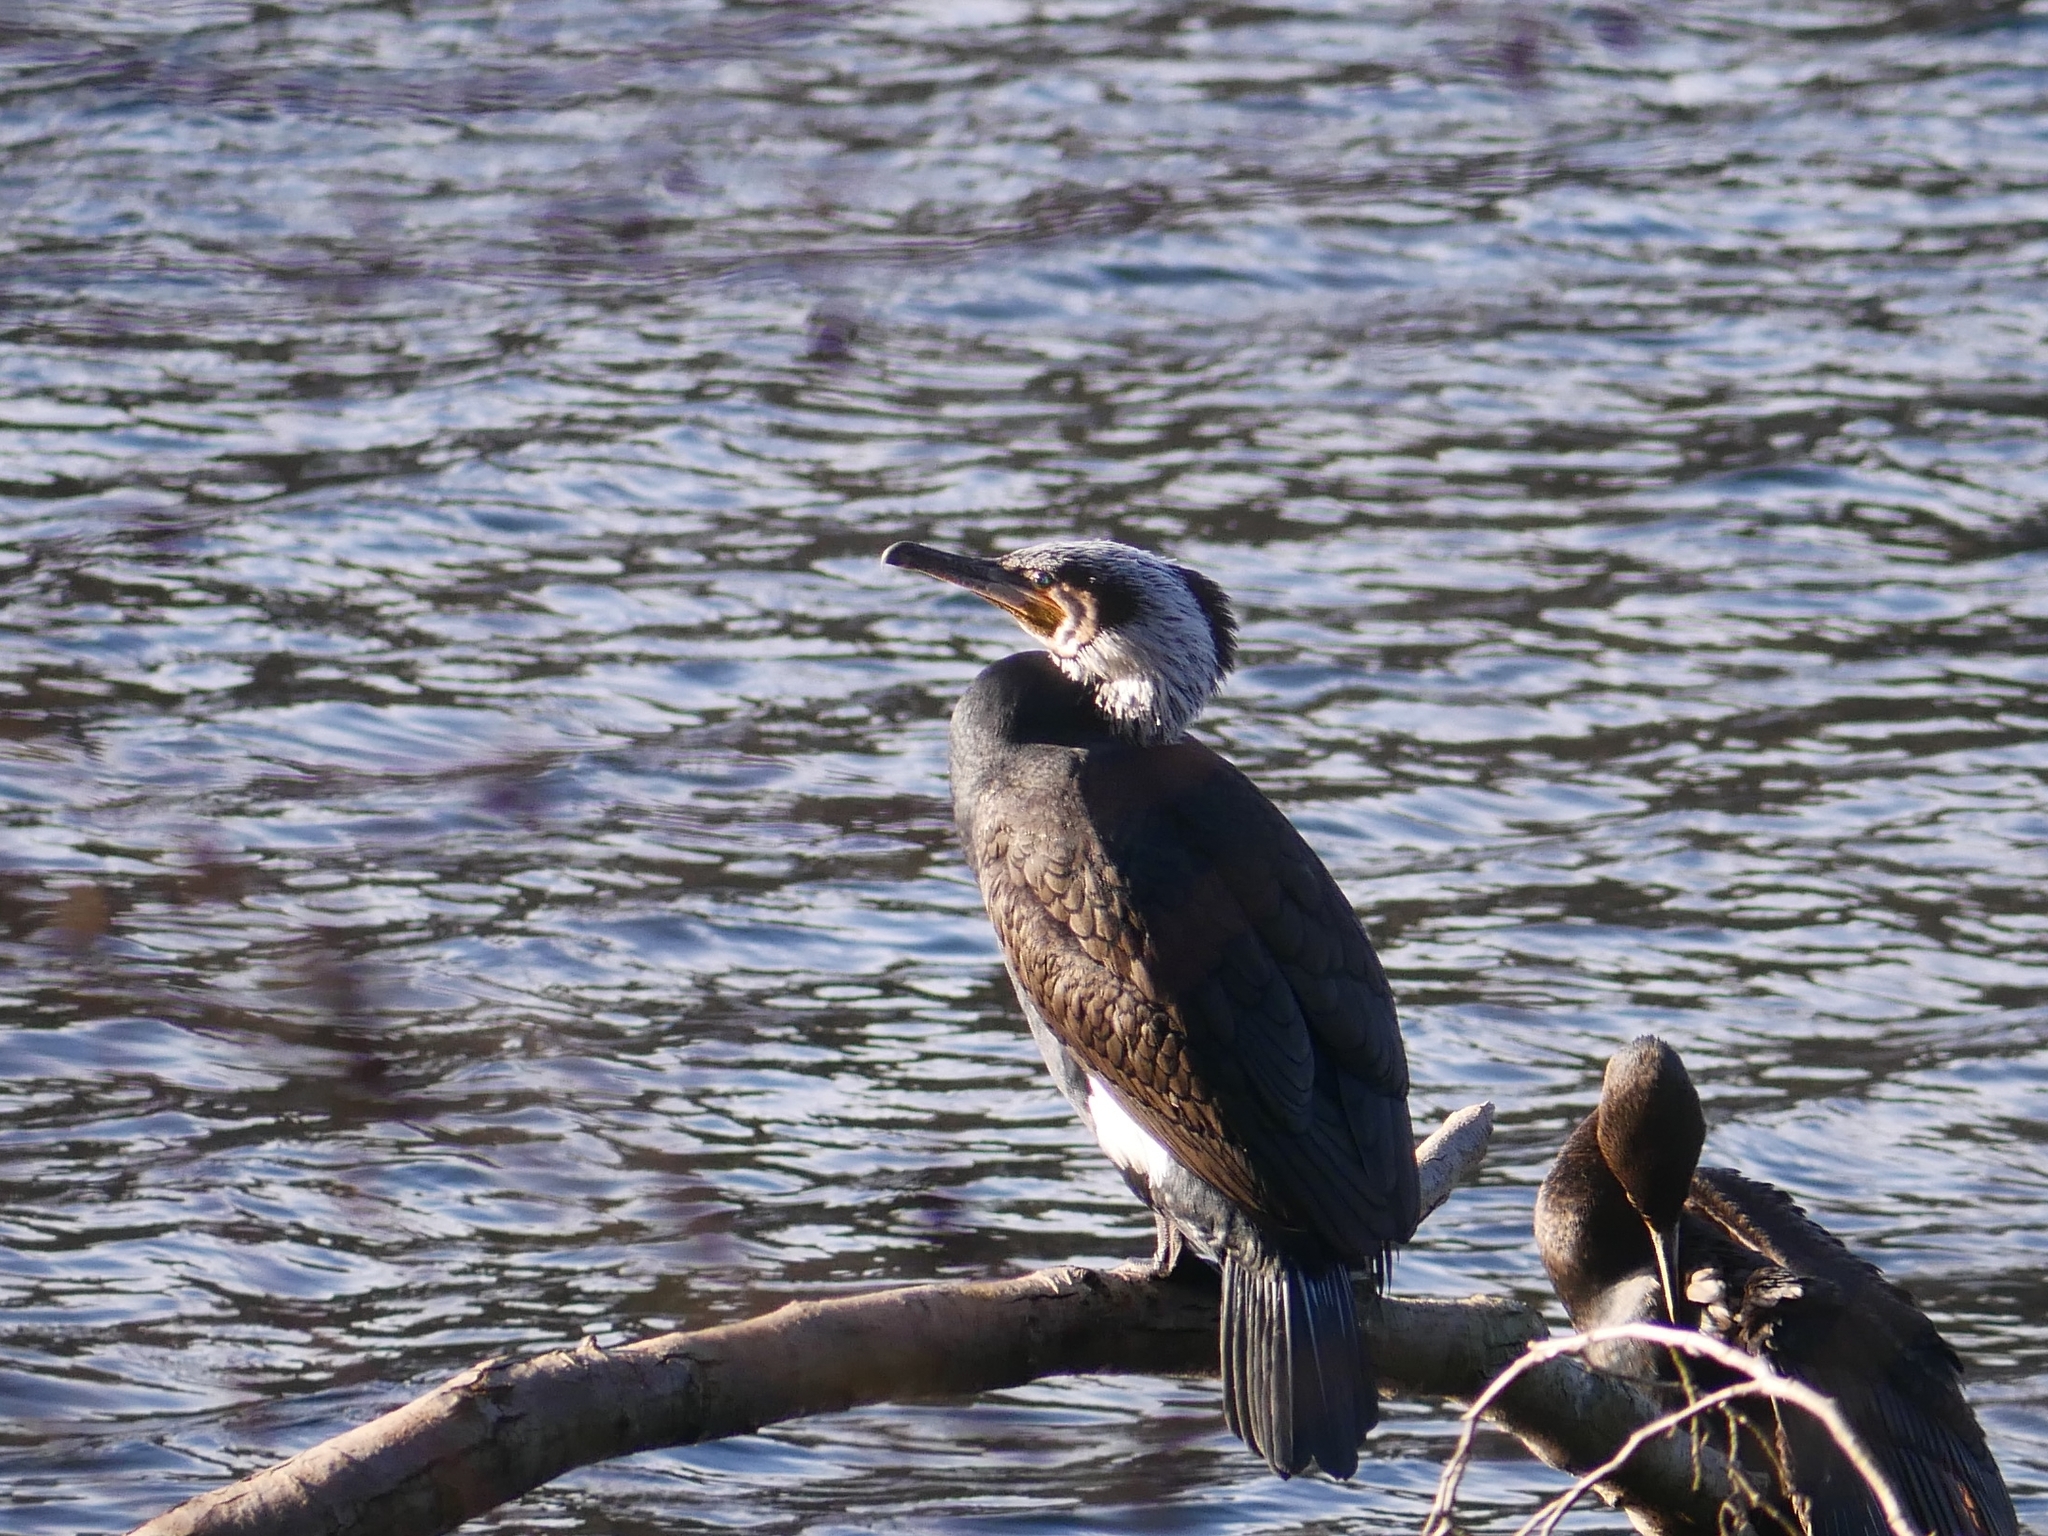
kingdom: Animalia
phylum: Chordata
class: Aves
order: Suliformes
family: Phalacrocoracidae
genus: Phalacrocorax
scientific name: Phalacrocorax carbo
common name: Great cormorant
